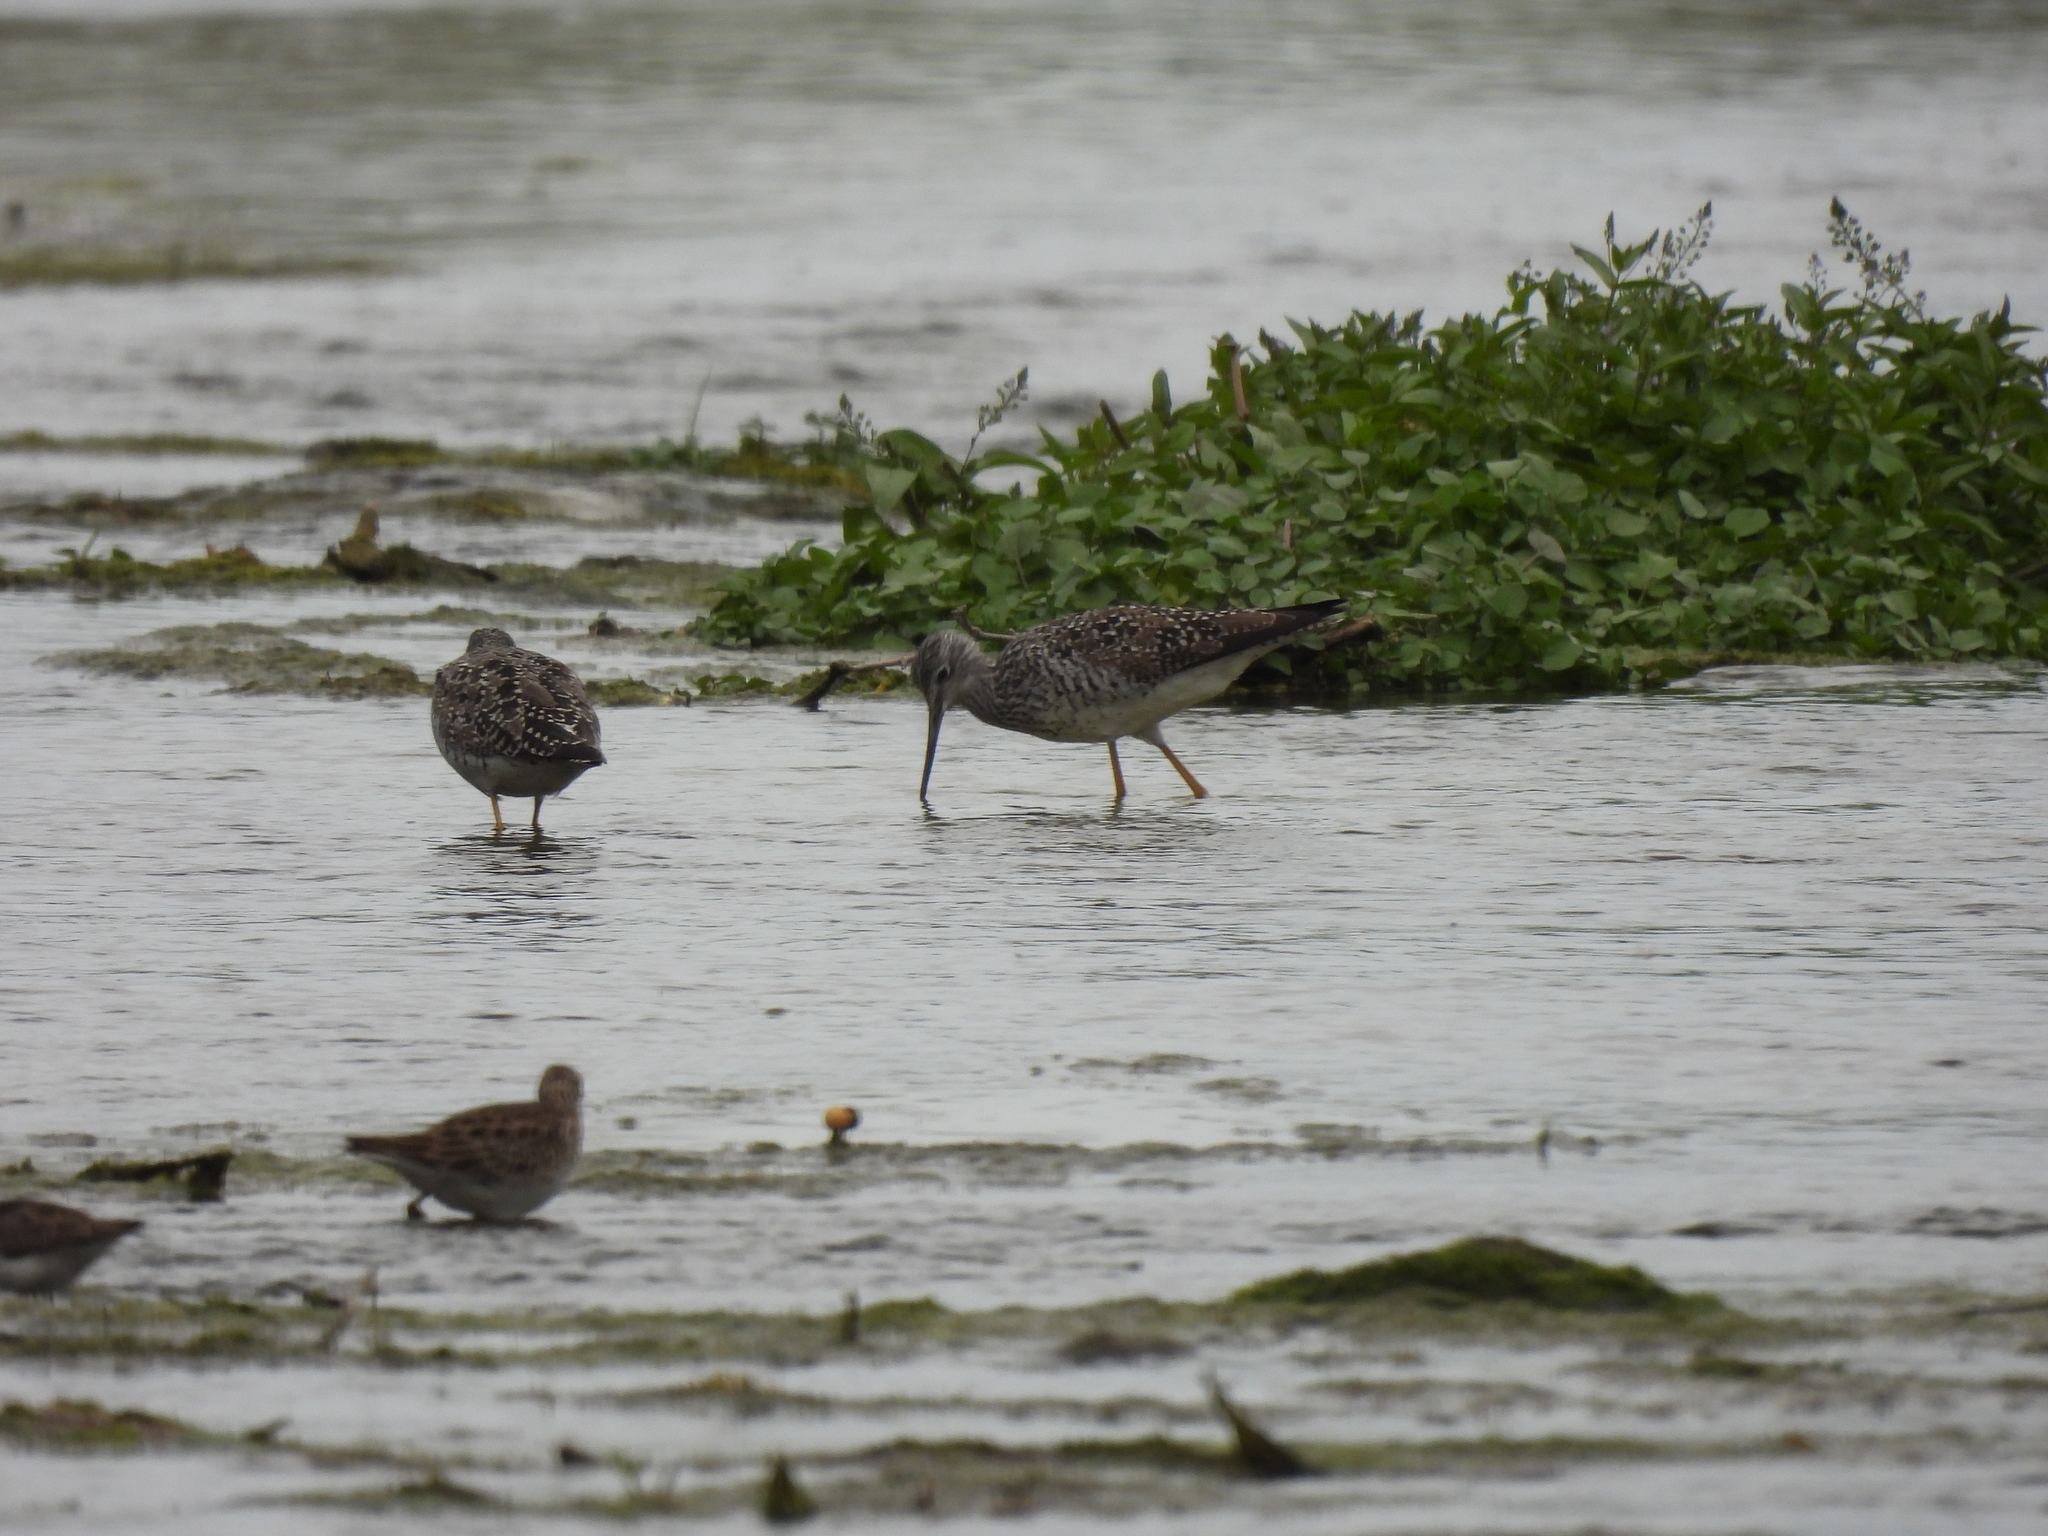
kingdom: Animalia
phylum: Chordata
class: Aves
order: Charadriiformes
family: Scolopacidae
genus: Tringa
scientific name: Tringa melanoleuca
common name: Greater yellowlegs
